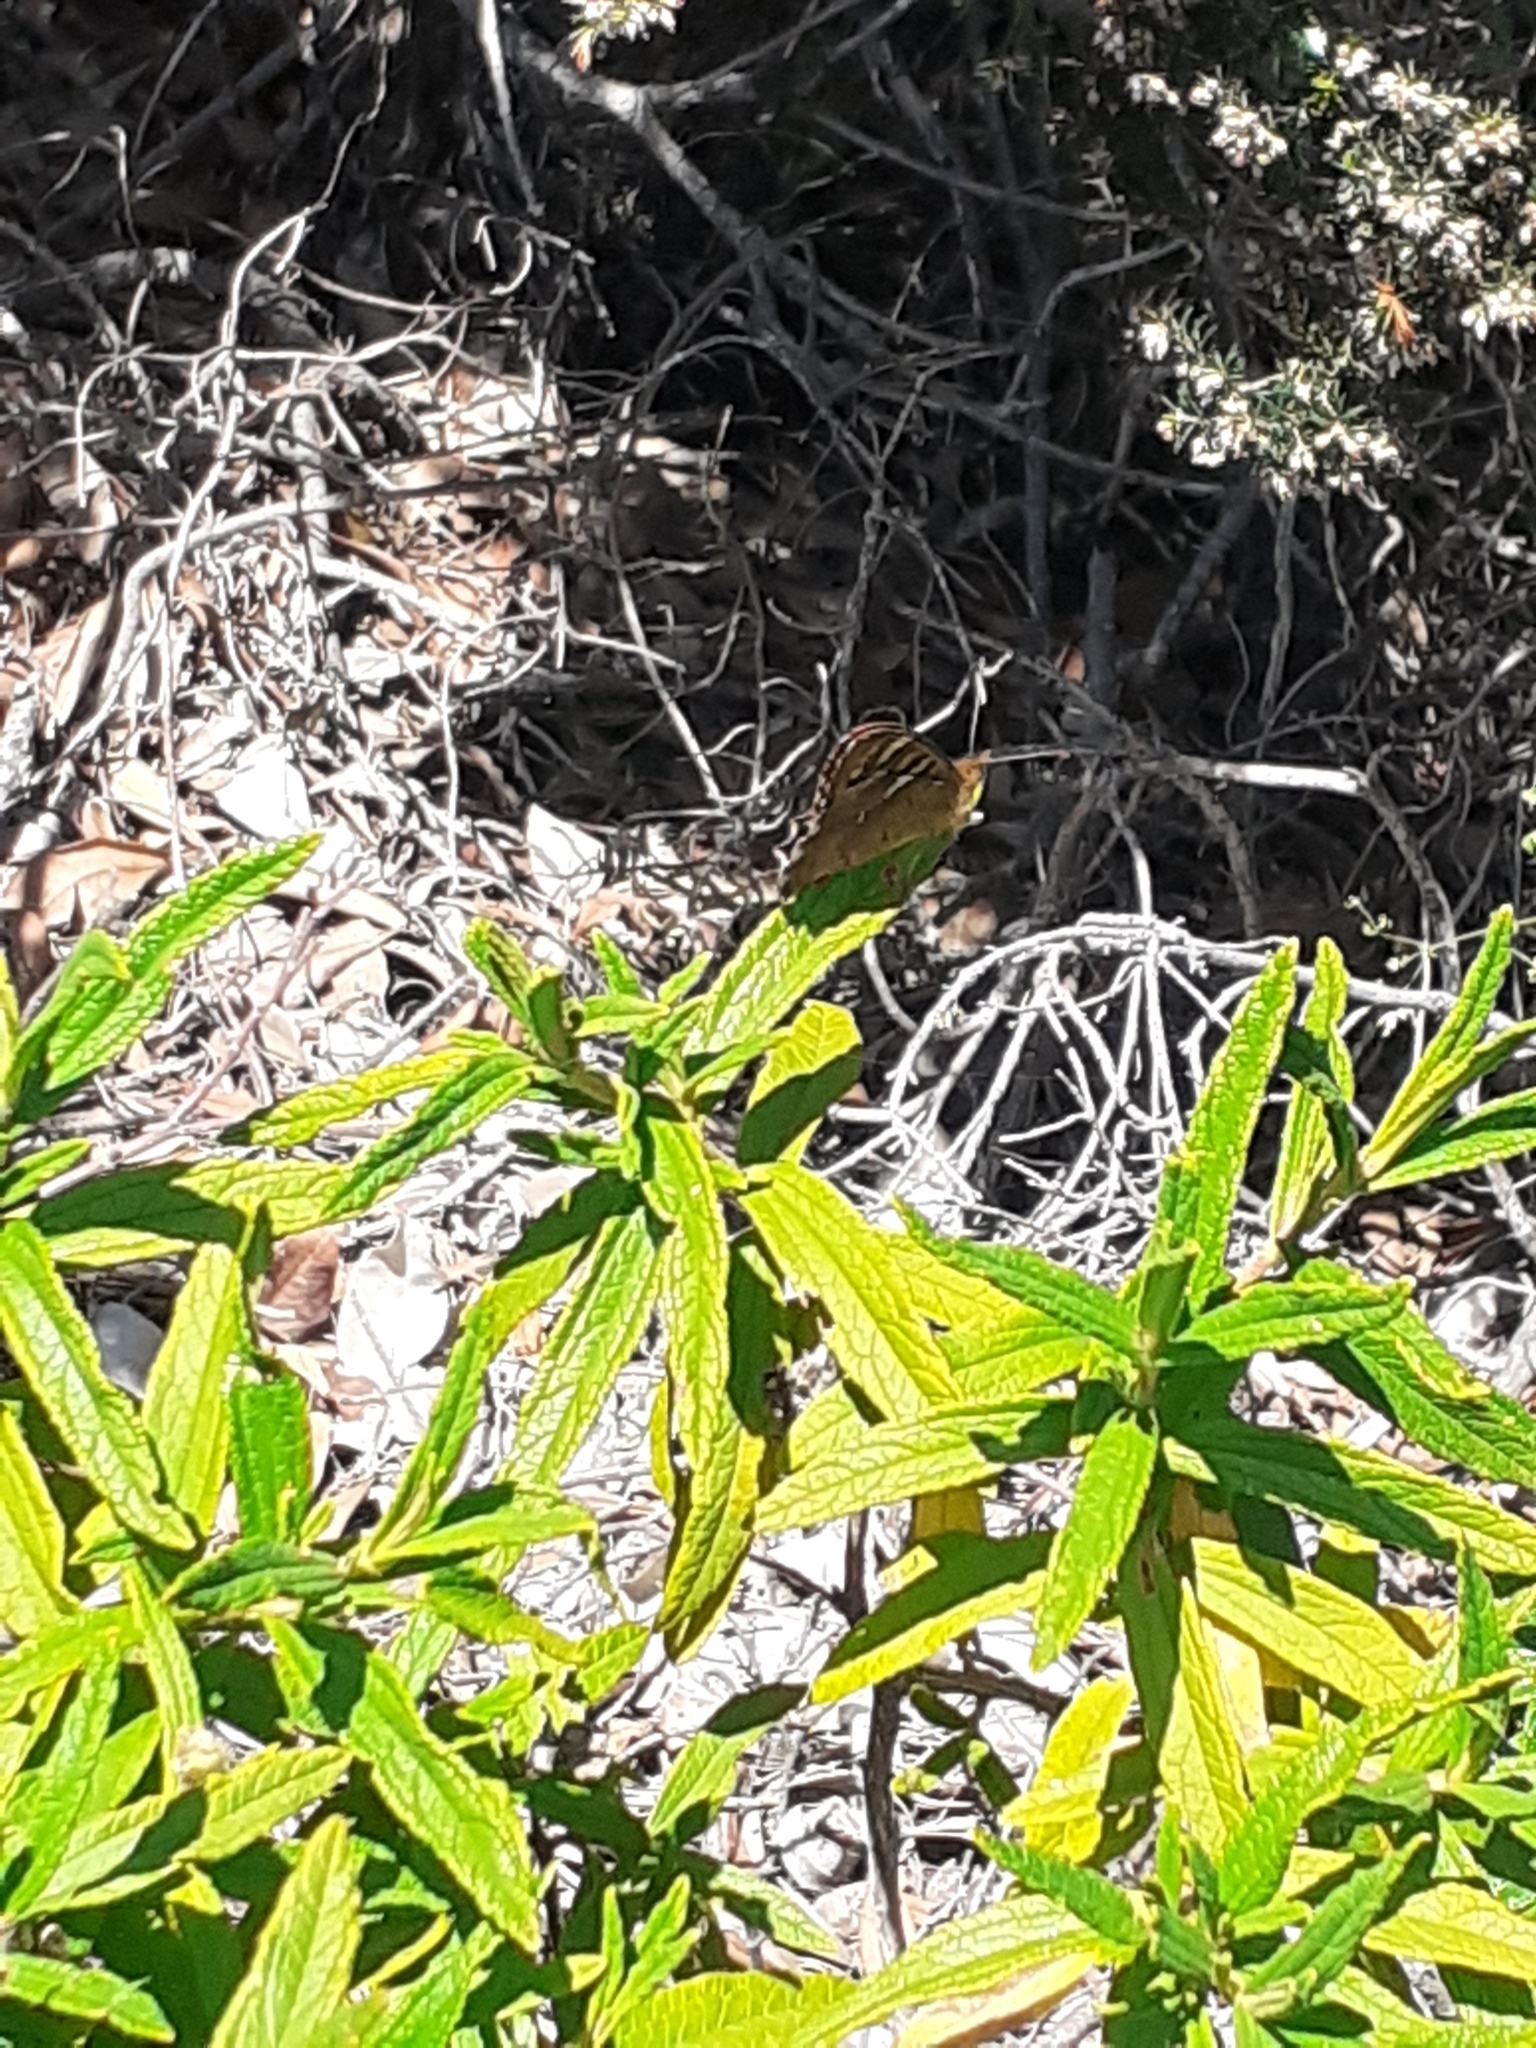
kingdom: Animalia
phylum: Arthropoda
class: Insecta
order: Lepidoptera
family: Nymphalidae
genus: Pararge
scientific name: Pararge aegeria
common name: Speckled wood
